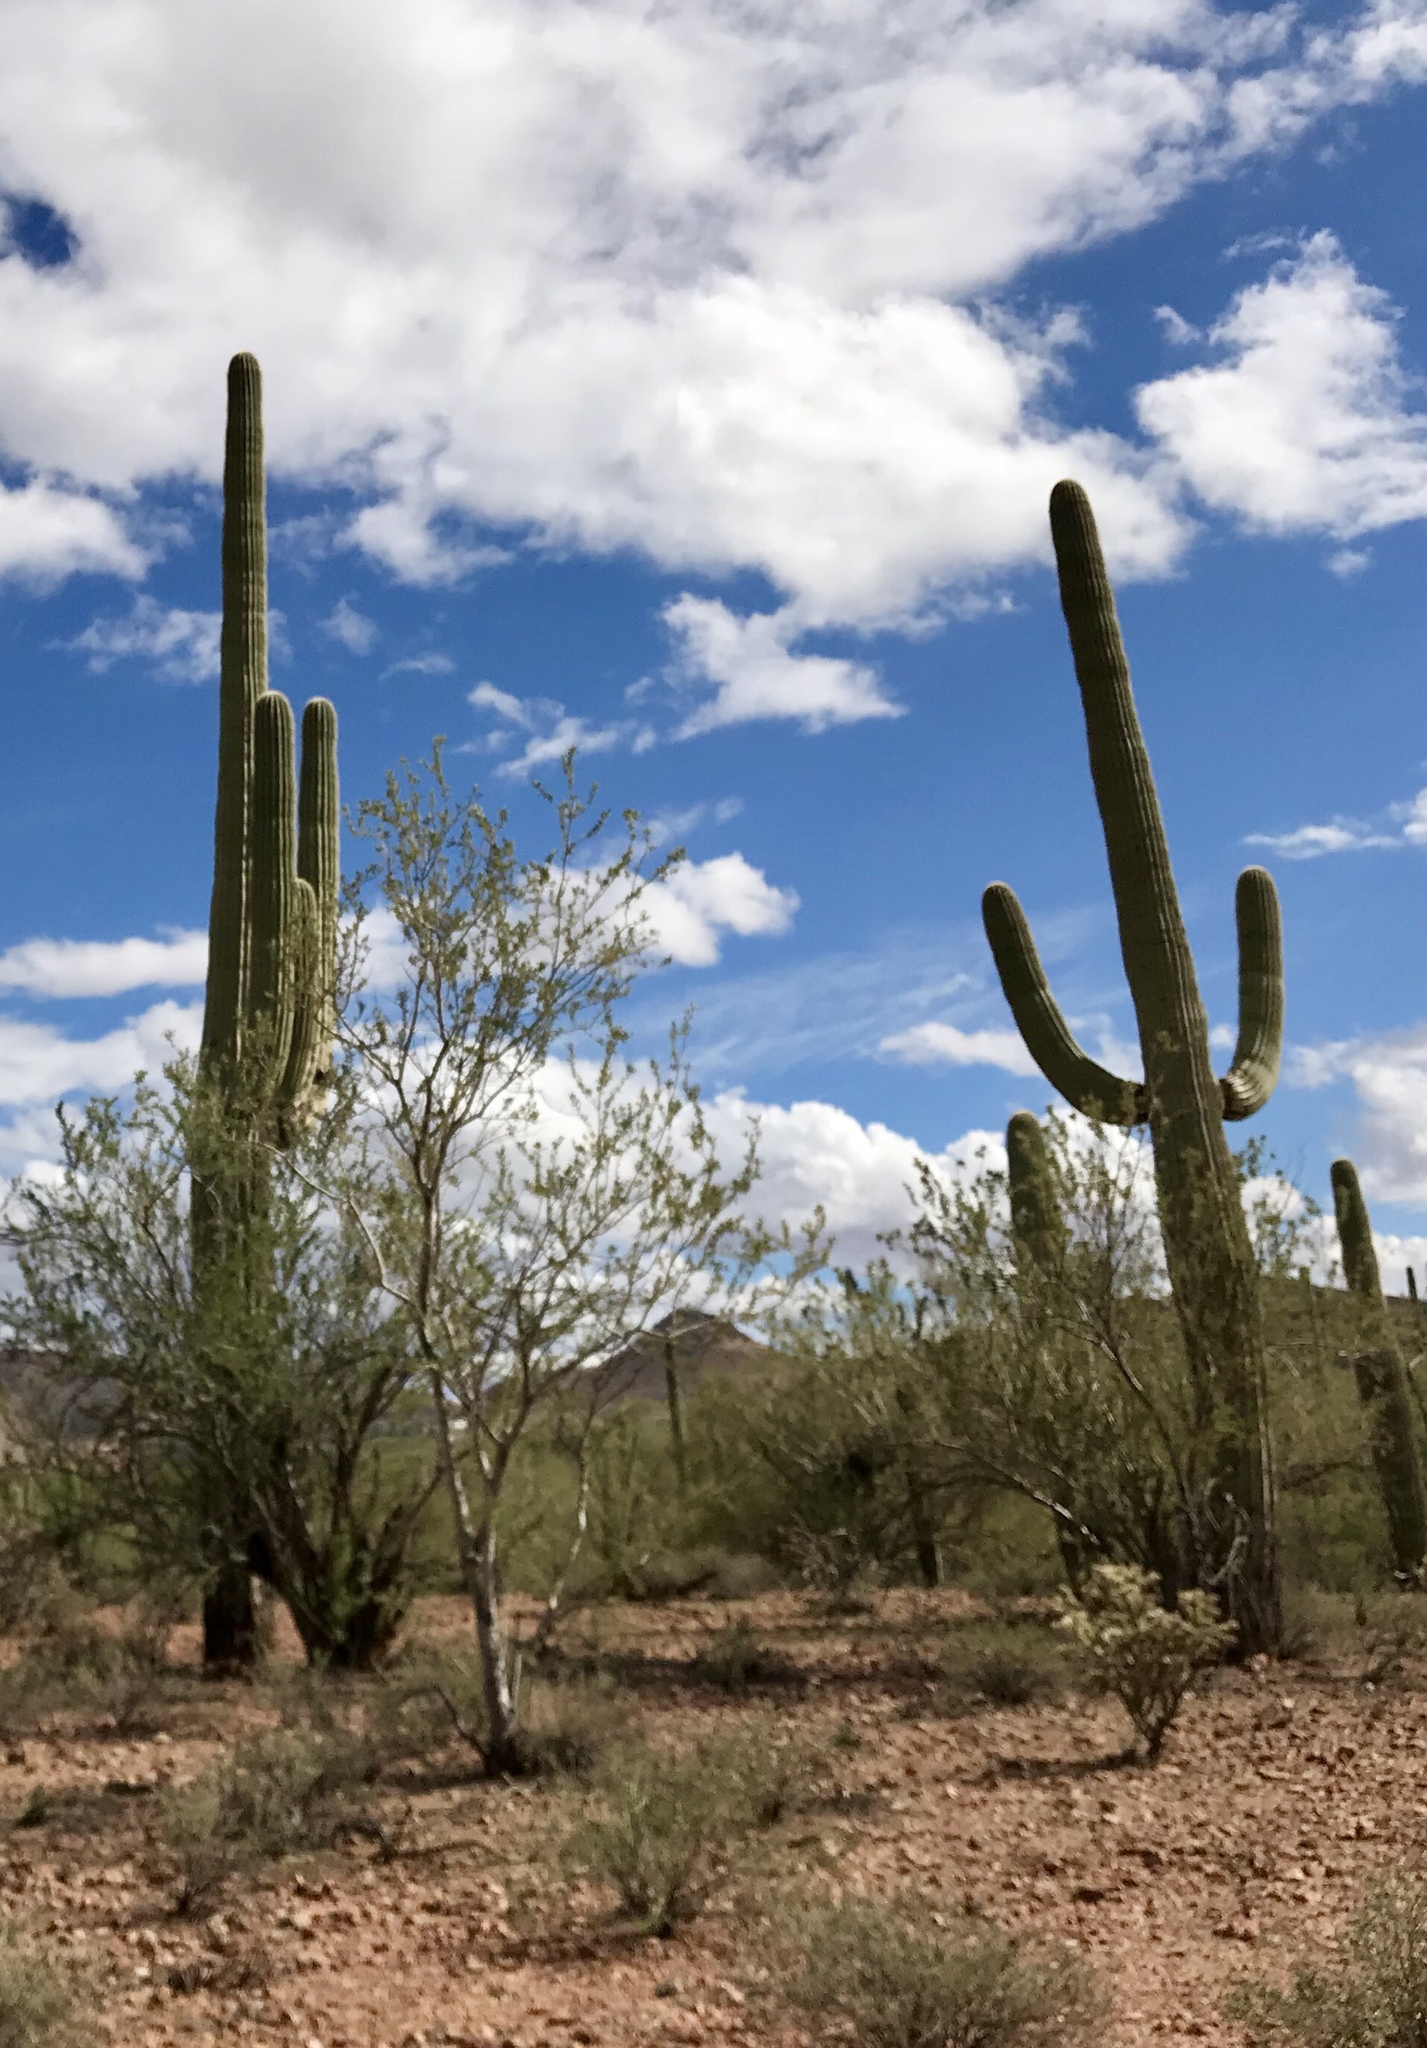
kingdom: Plantae
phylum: Tracheophyta
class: Magnoliopsida
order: Caryophyllales
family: Cactaceae
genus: Carnegiea
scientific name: Carnegiea gigantea
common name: Saguaro
